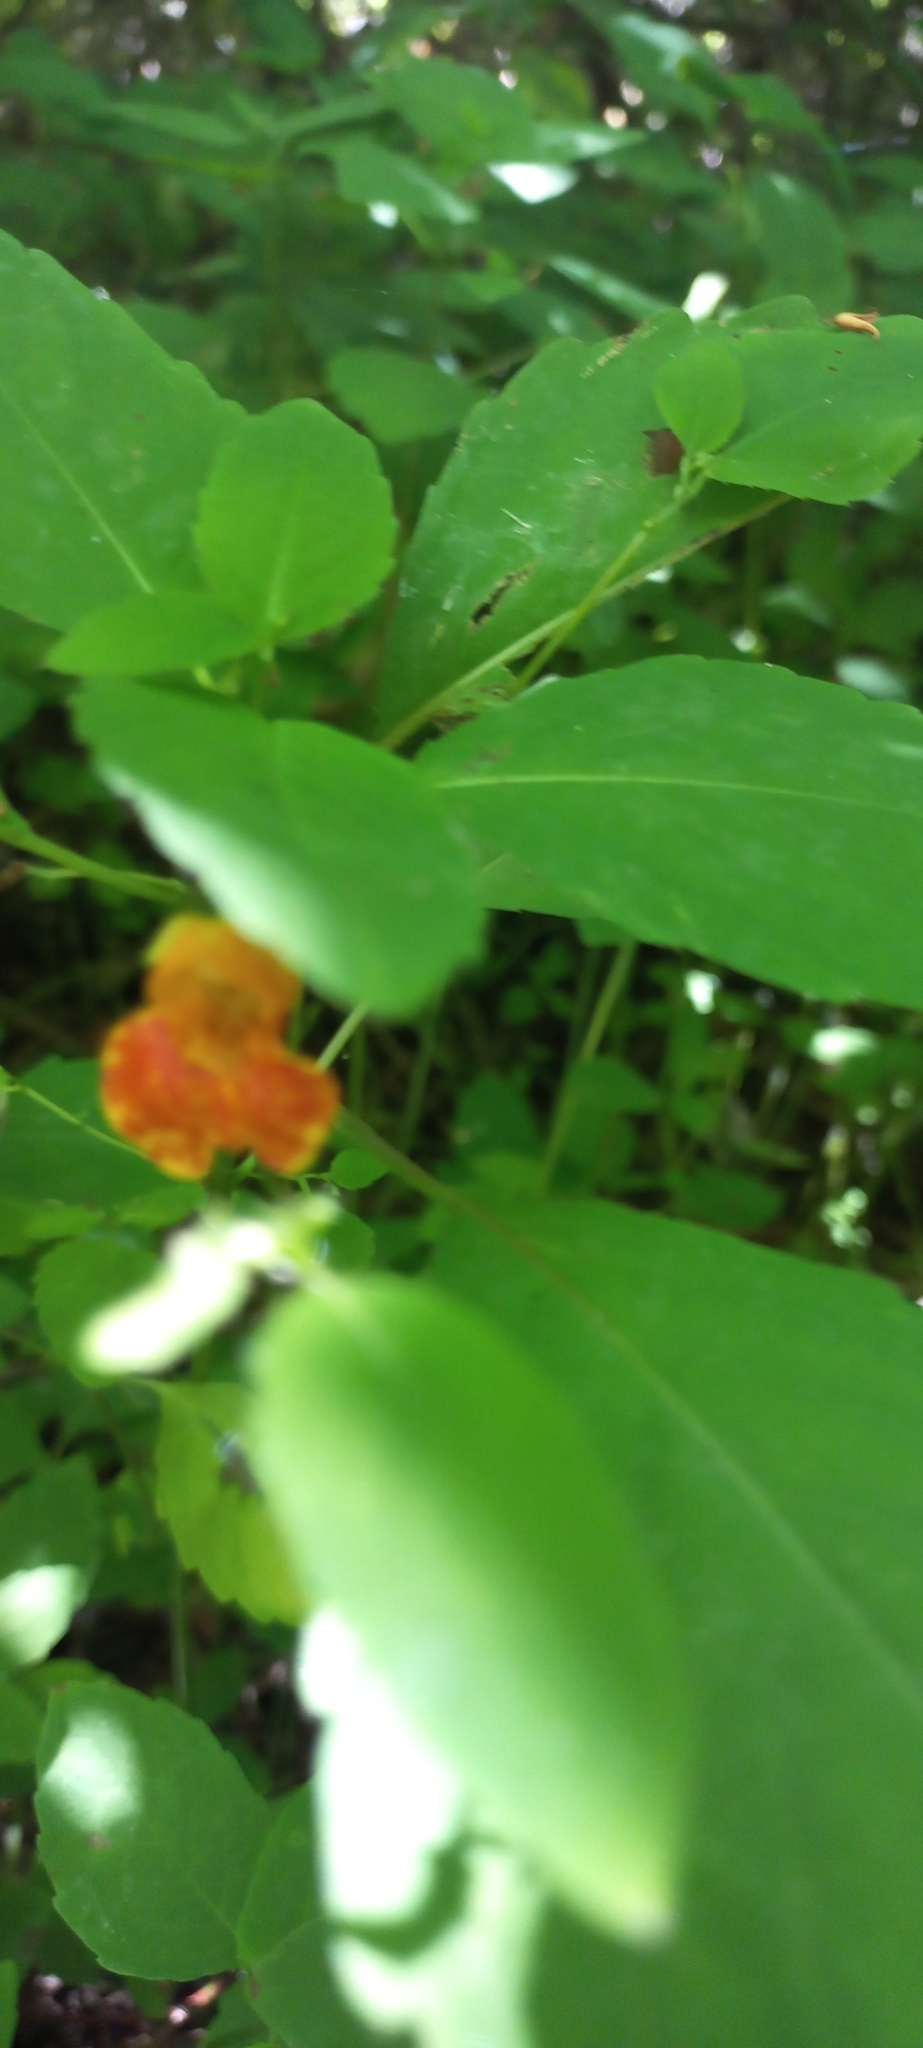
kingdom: Plantae
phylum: Tracheophyta
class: Magnoliopsida
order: Ericales
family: Balsaminaceae
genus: Impatiens
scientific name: Impatiens capensis
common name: Orange balsam
